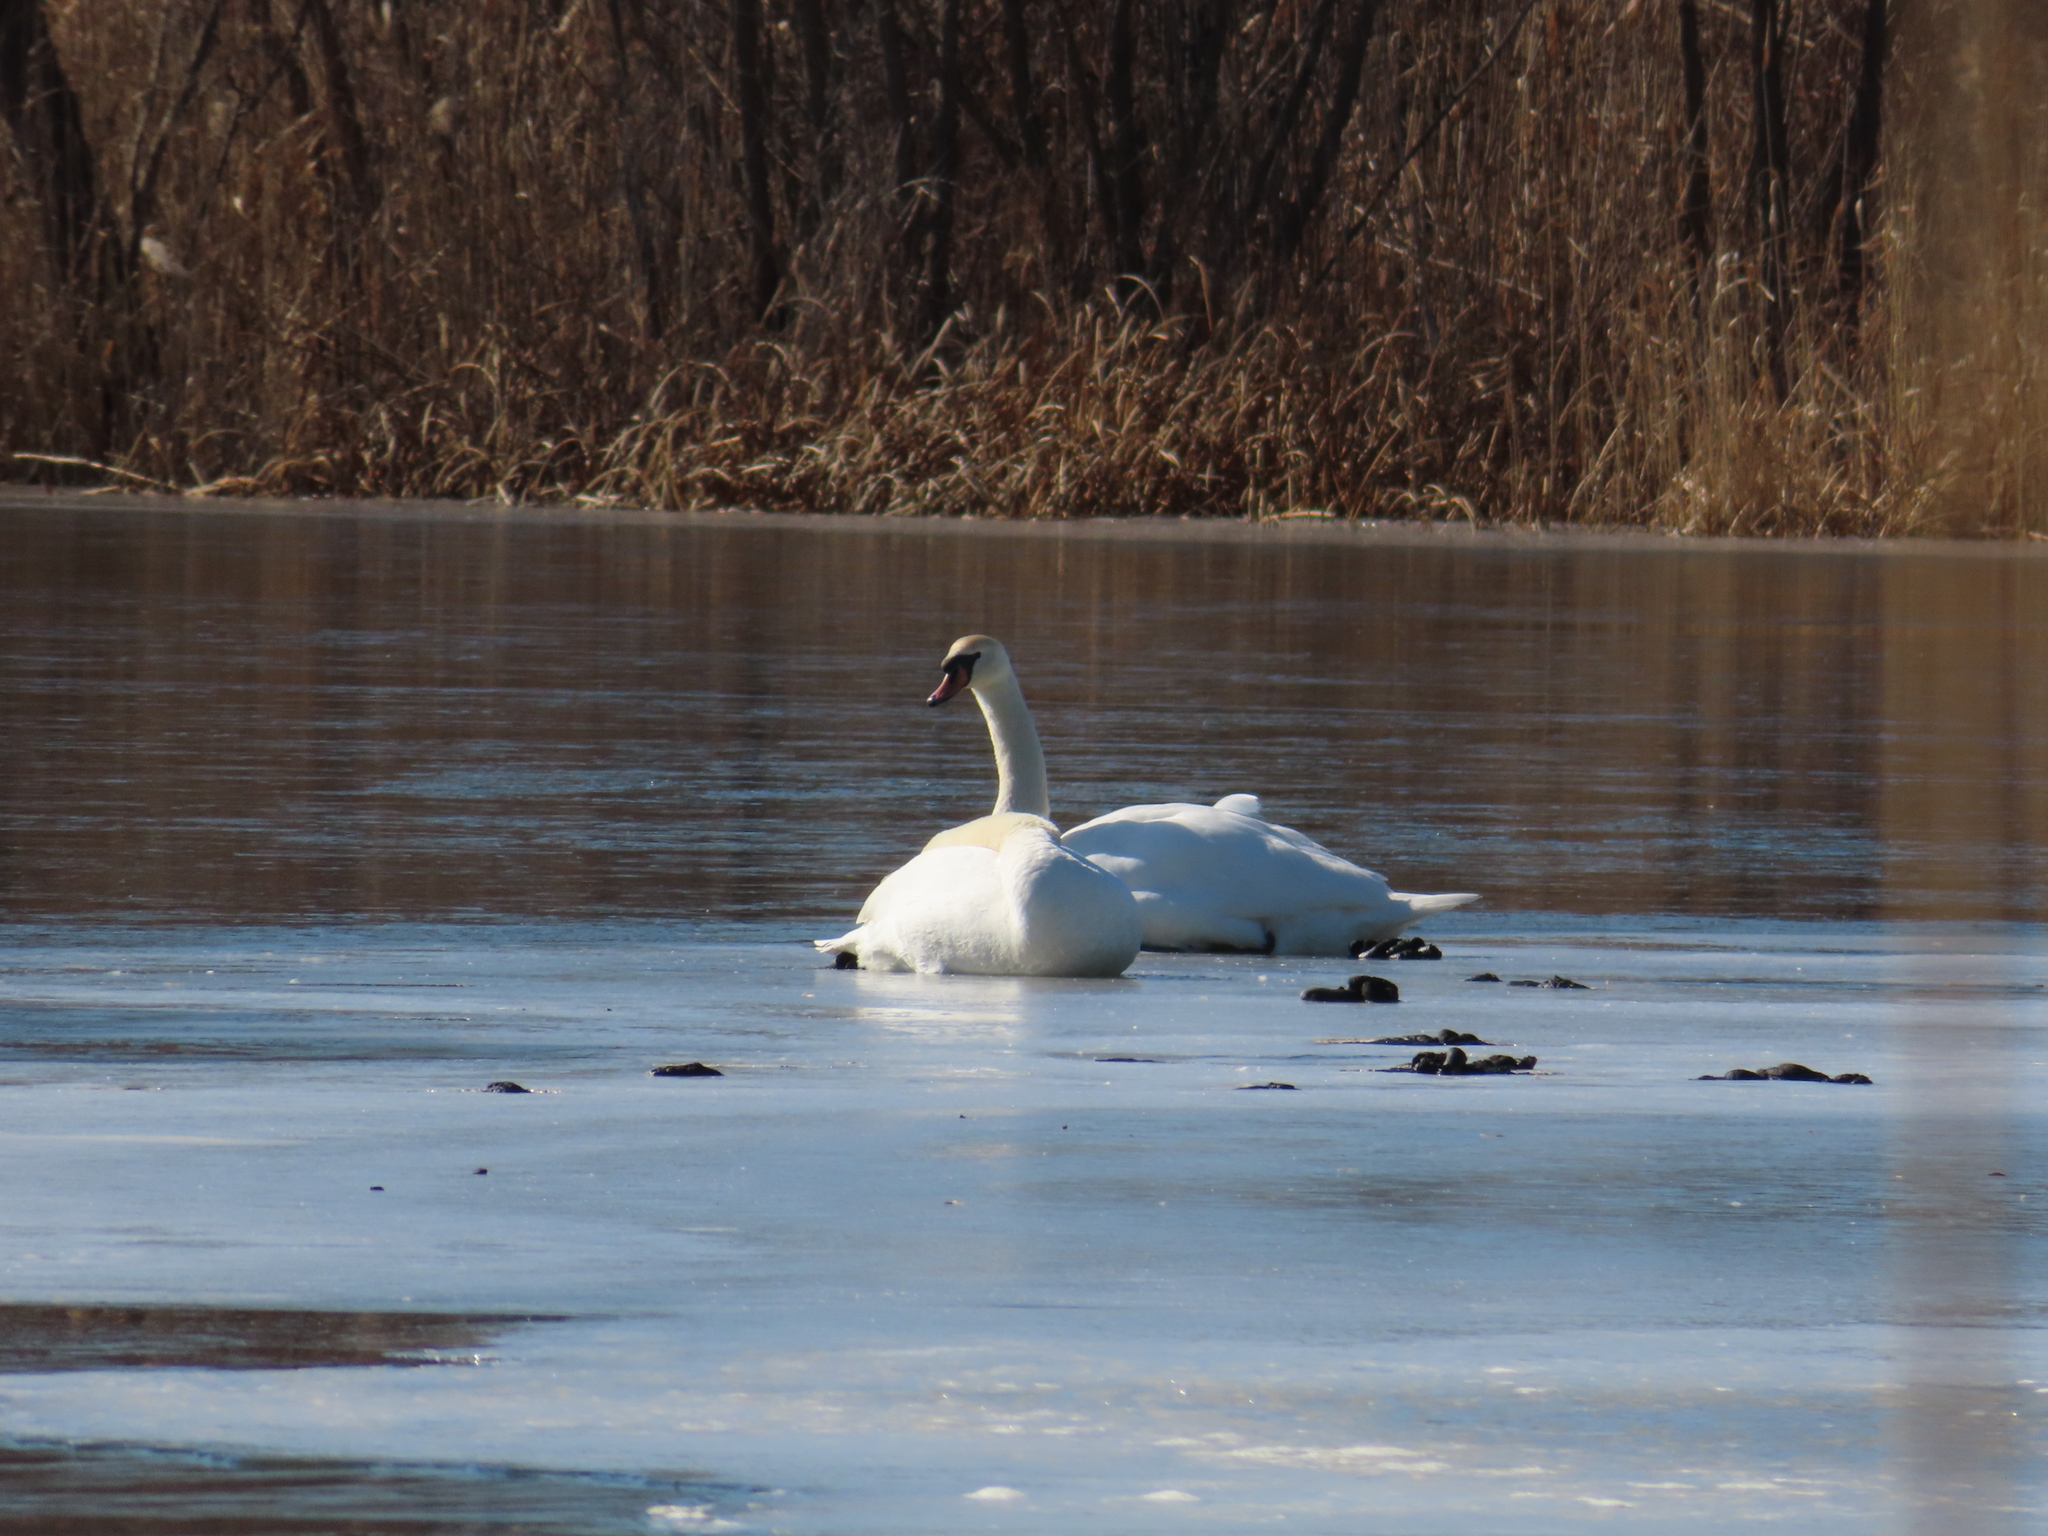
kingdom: Animalia
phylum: Chordata
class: Aves
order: Anseriformes
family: Anatidae
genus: Cygnus
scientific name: Cygnus olor
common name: Mute swan
